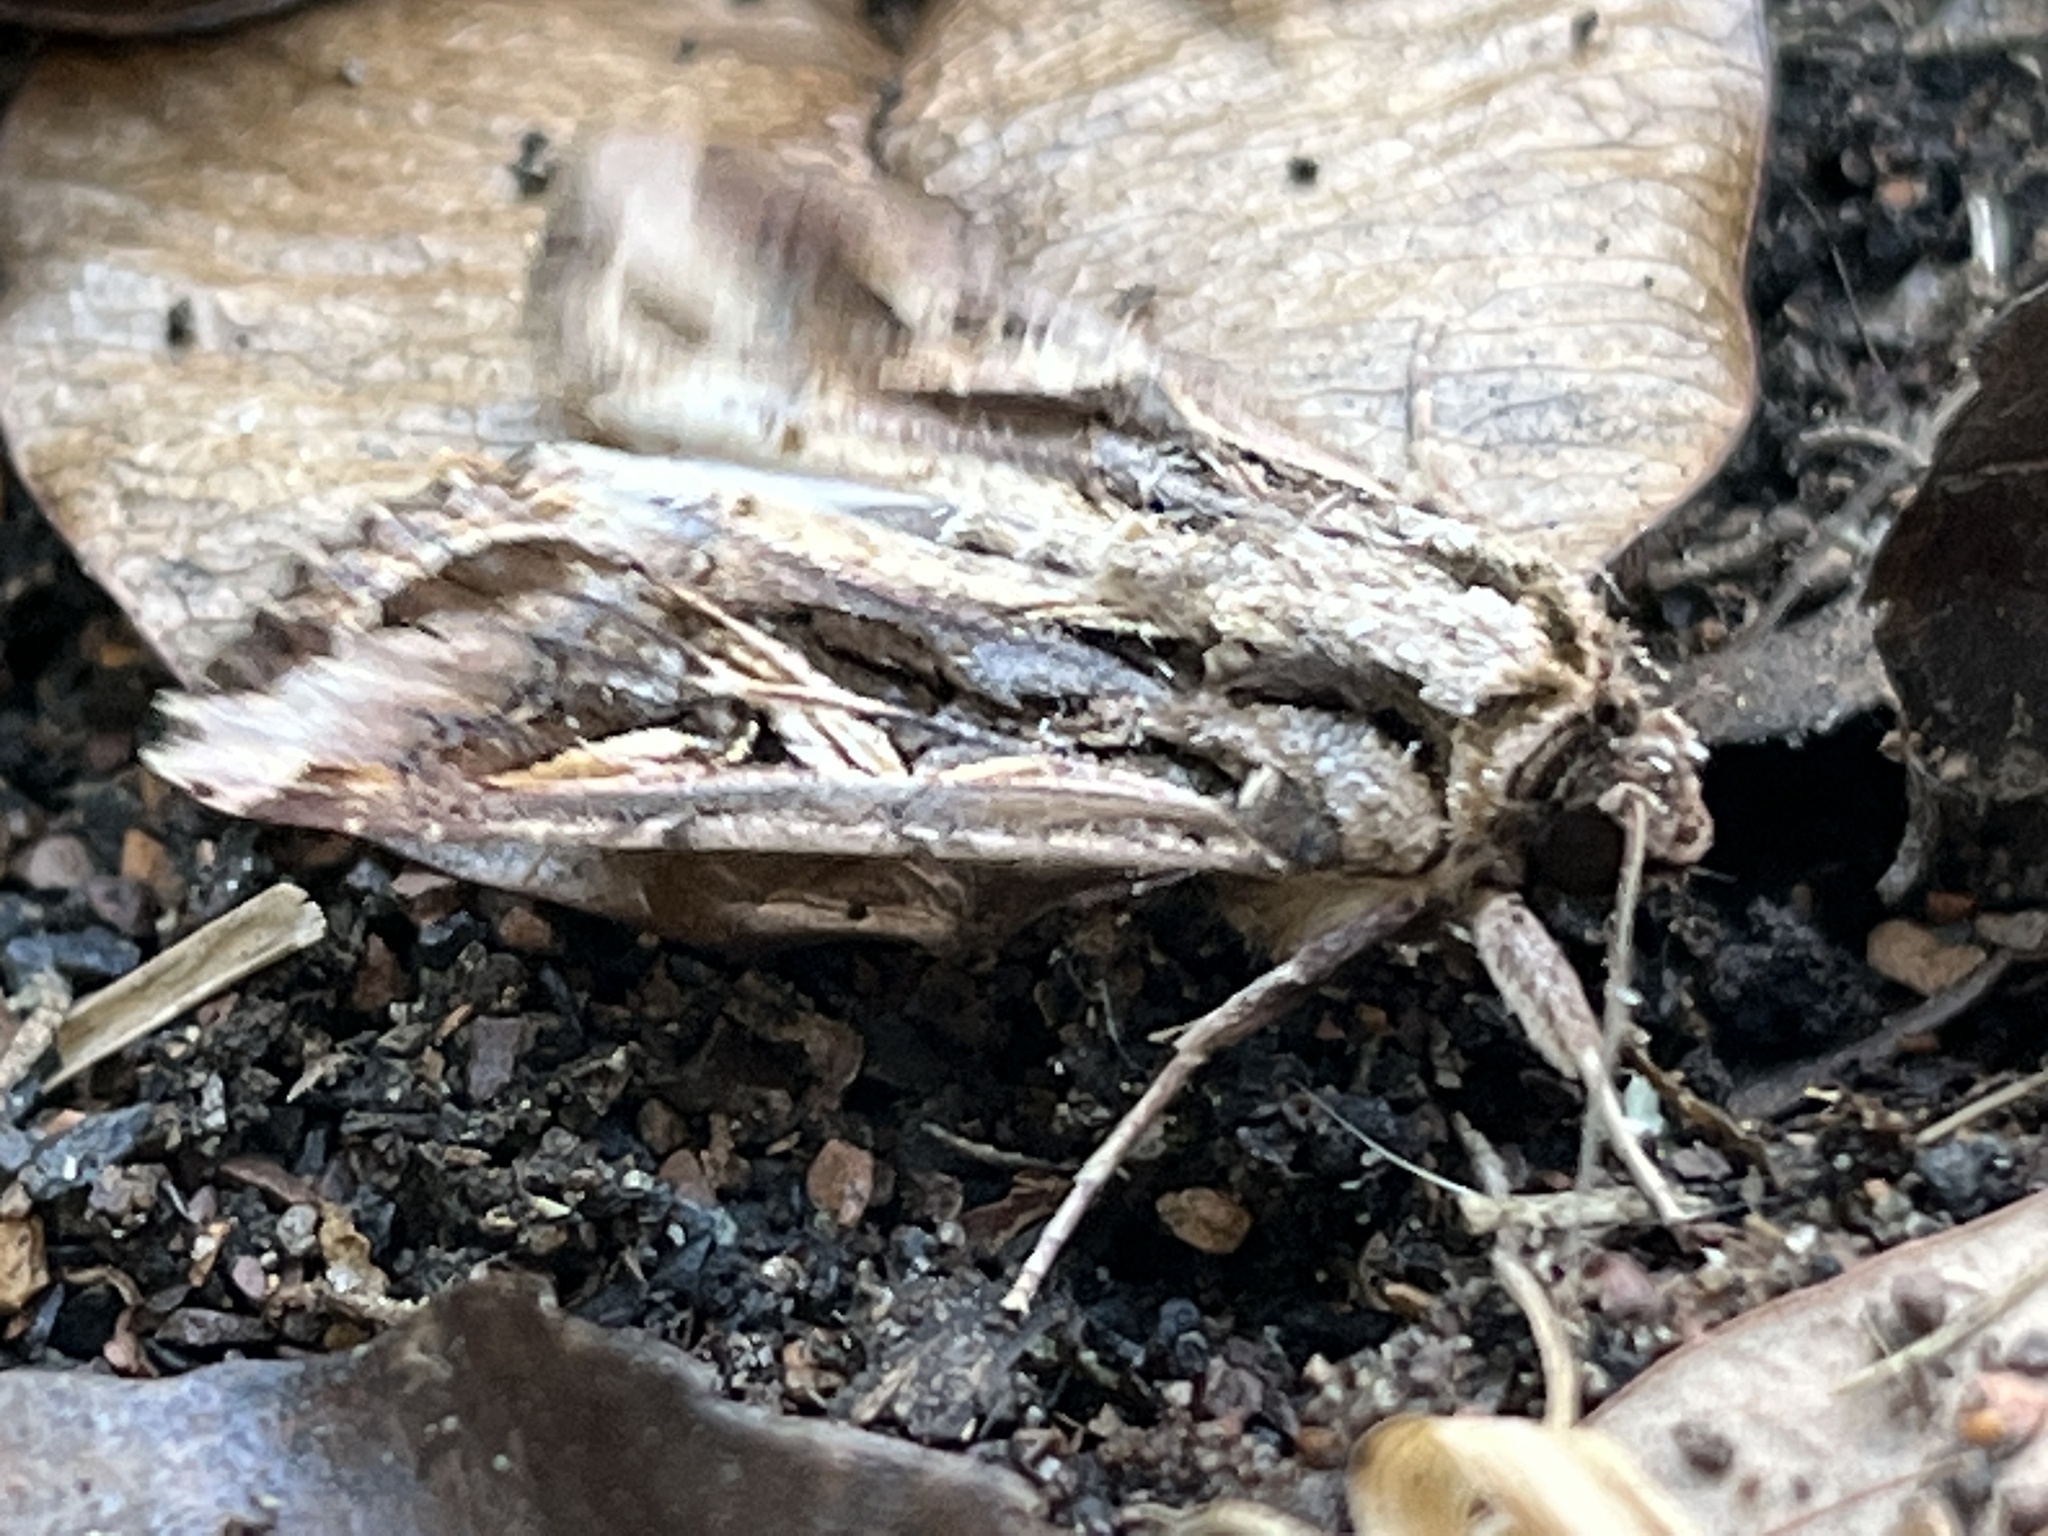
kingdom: Animalia
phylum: Arthropoda
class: Insecta
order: Lepidoptera
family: Noctuidae
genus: Spodoptera
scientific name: Spodoptera pulchella
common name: Caribbean armyworm moth
